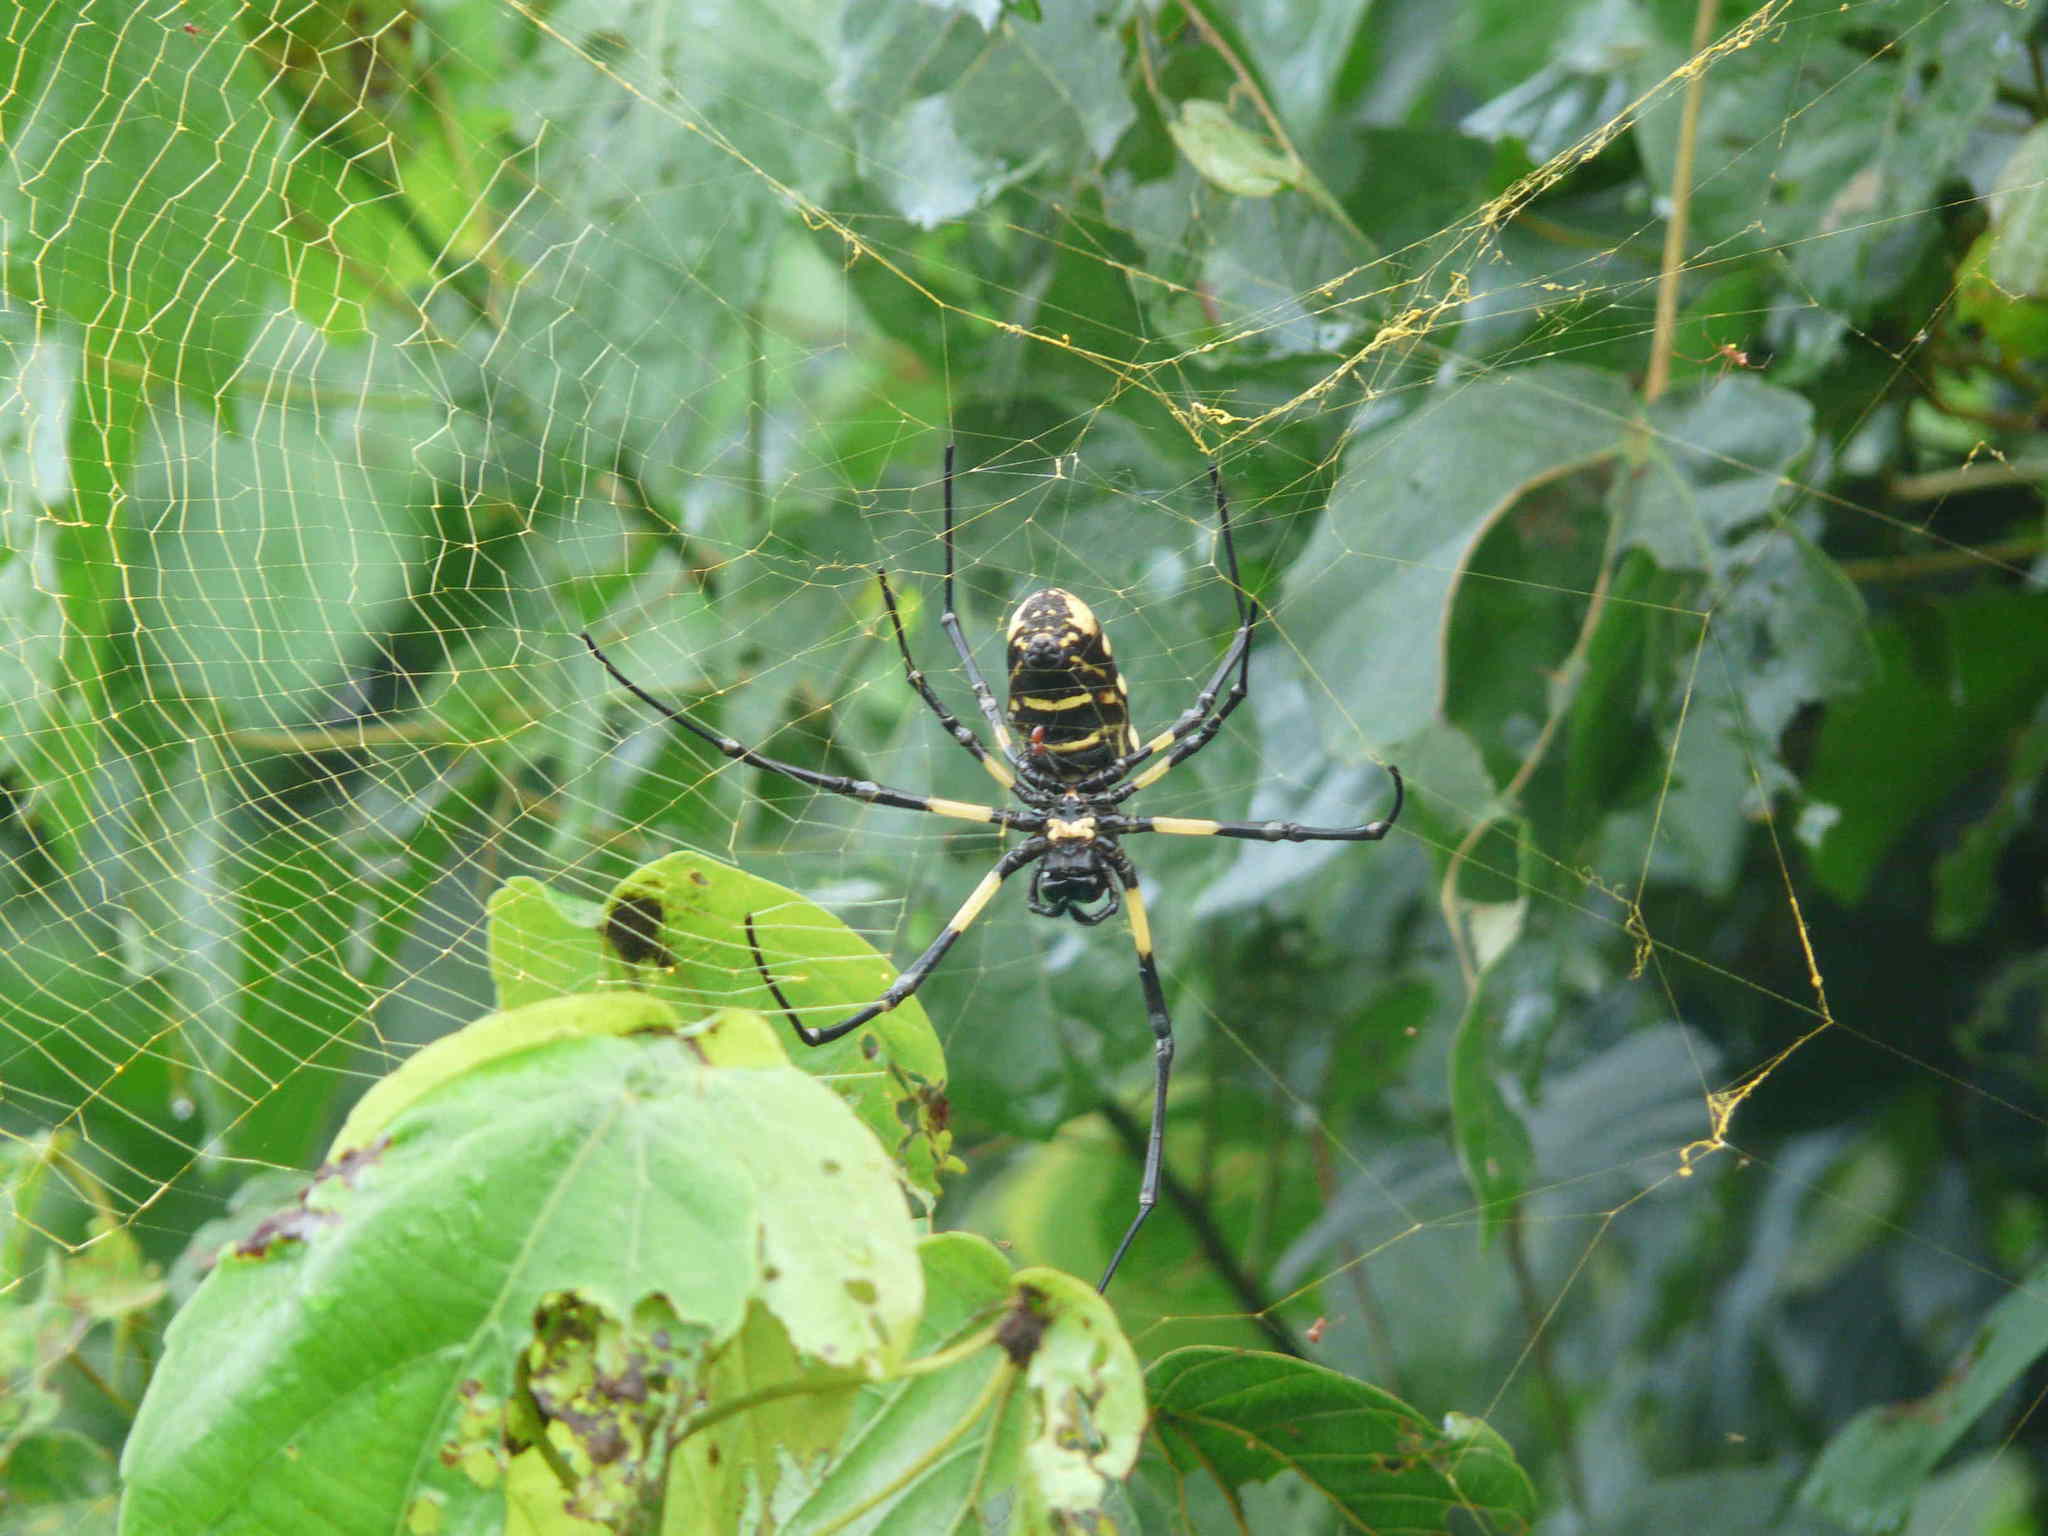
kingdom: Animalia
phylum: Arthropoda
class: Arachnida
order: Araneae
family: Araneidae
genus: Trichonephila
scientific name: Trichonephila turneri
